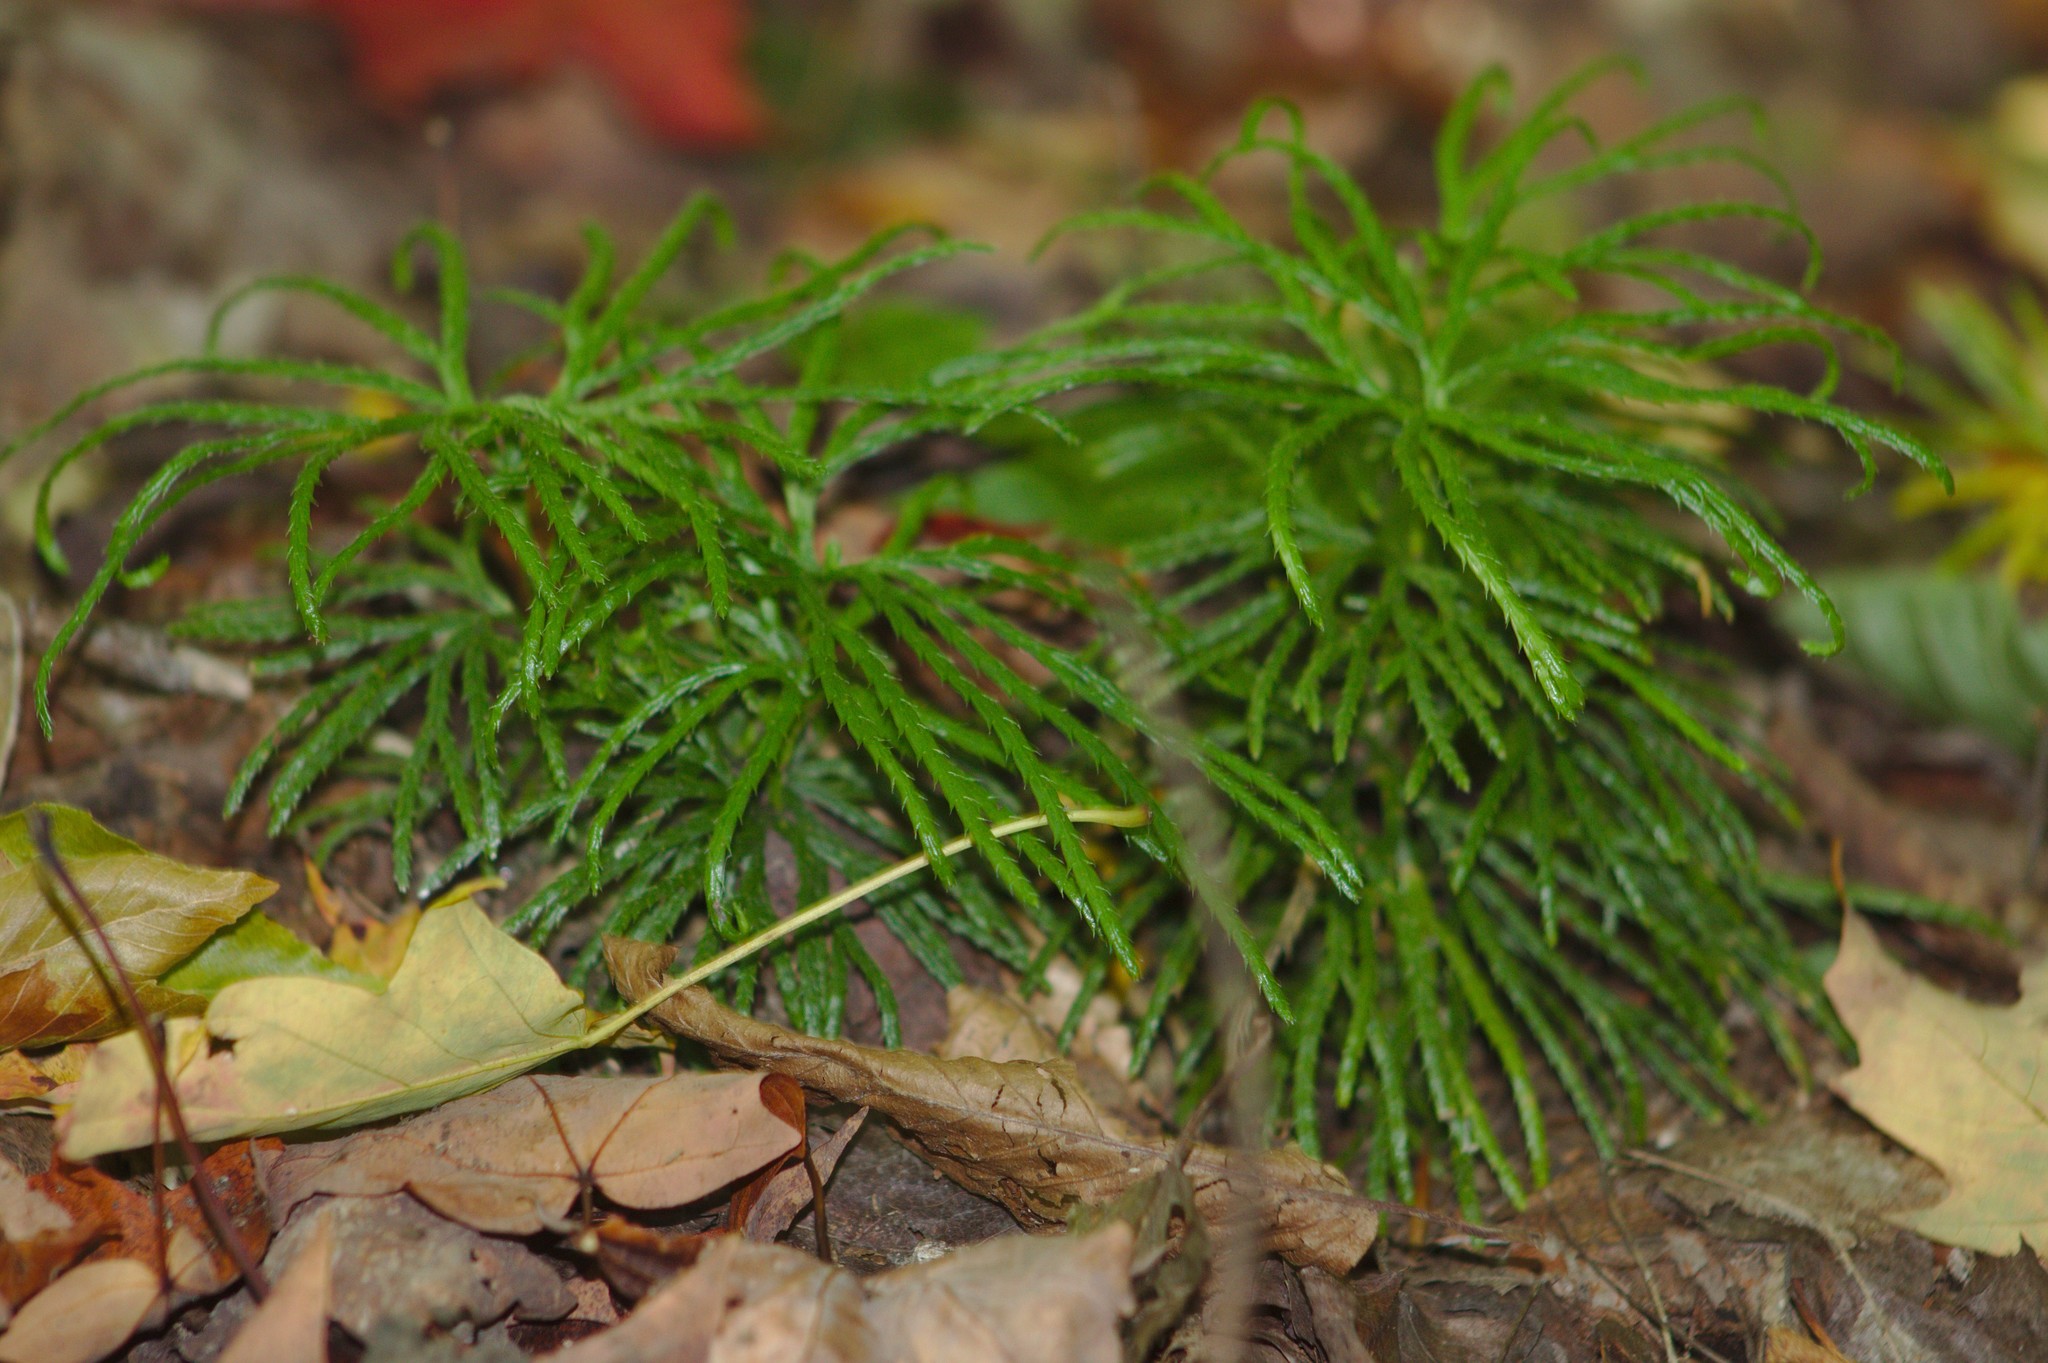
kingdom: Plantae
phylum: Tracheophyta
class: Lycopodiopsida
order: Lycopodiales
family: Lycopodiaceae
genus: Diphasiastrum
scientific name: Diphasiastrum digitatum
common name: Southern running-pine
